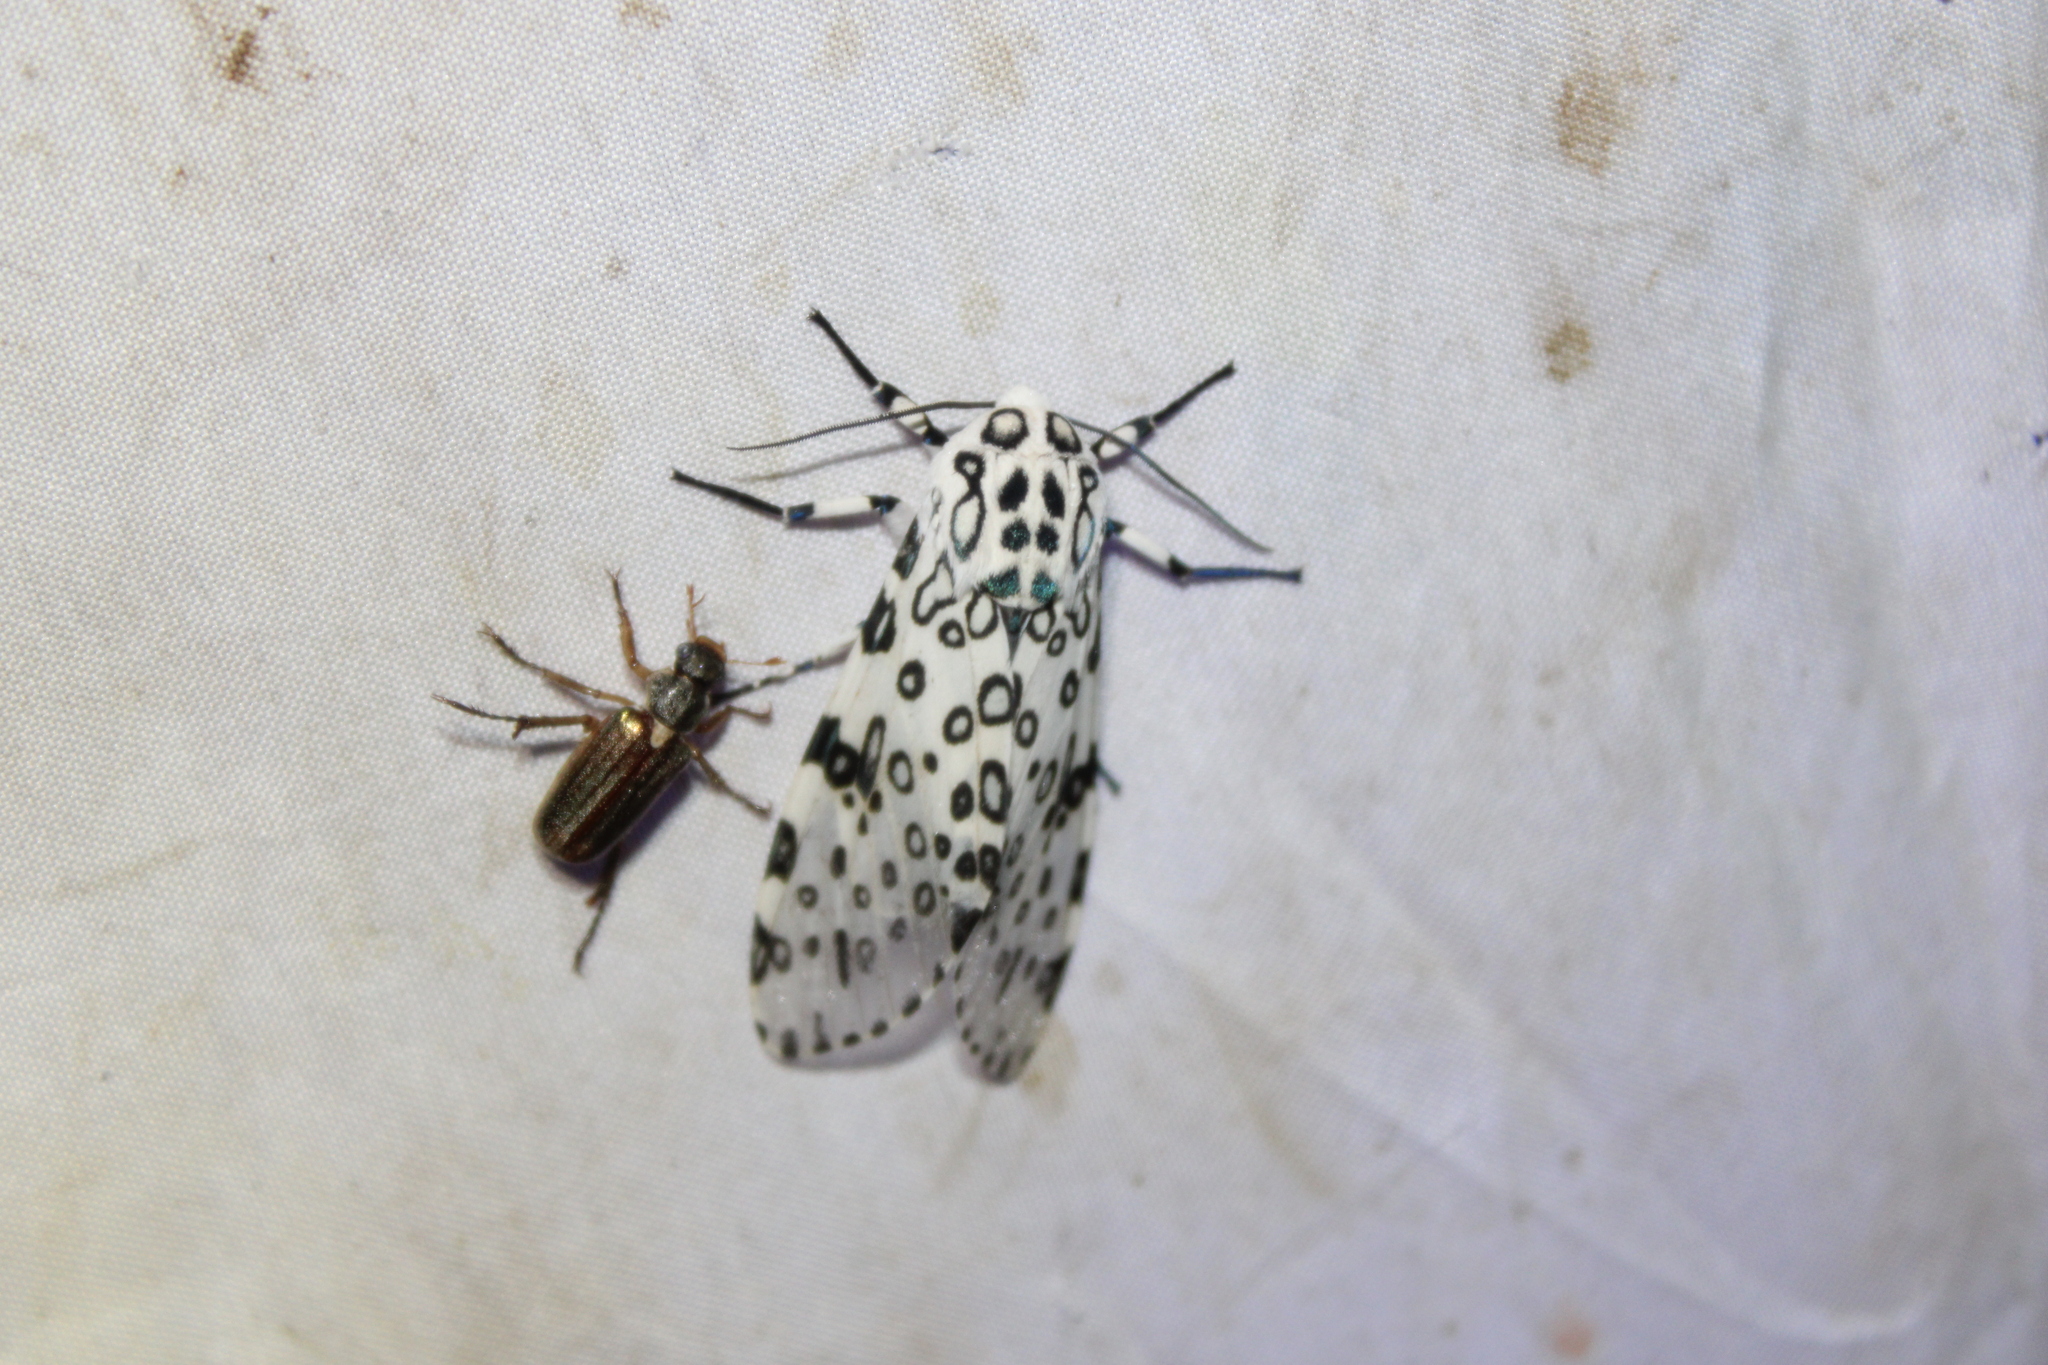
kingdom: Animalia
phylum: Arthropoda
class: Insecta
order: Lepidoptera
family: Erebidae
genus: Hypercompe
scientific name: Hypercompe scribonia
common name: Giant leopard moth
